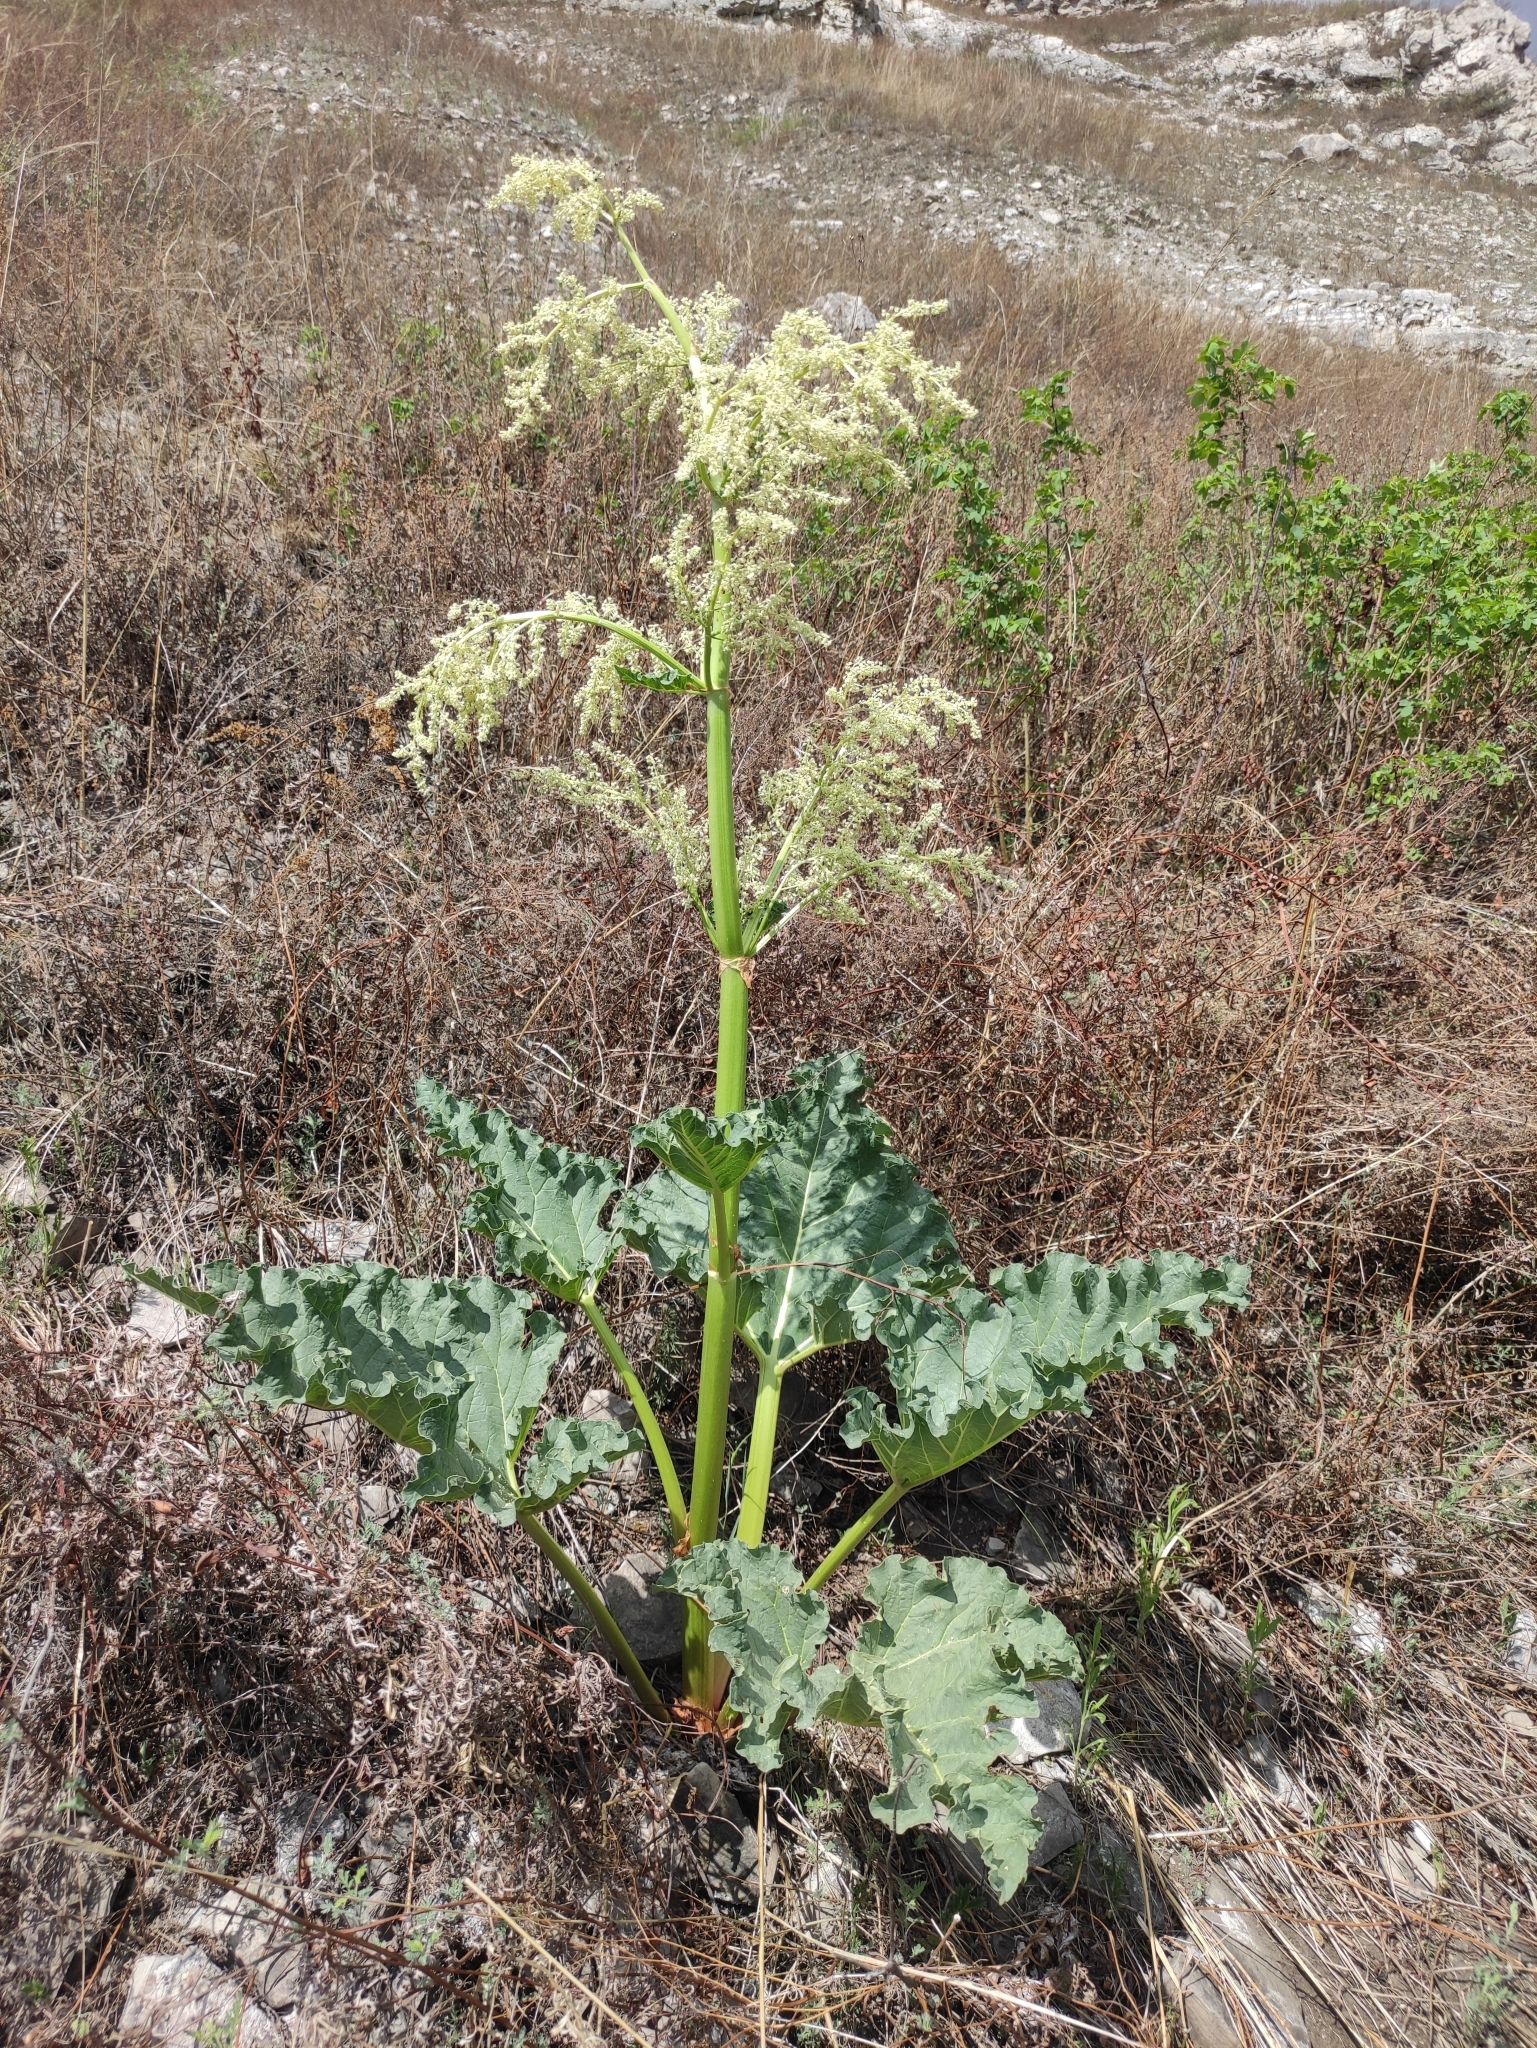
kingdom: Plantae
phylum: Tracheophyta
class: Magnoliopsida
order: Caryophyllales
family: Polygonaceae
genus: Rheum
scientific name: Rheum rhabarbarum
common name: Garden rhubarb
